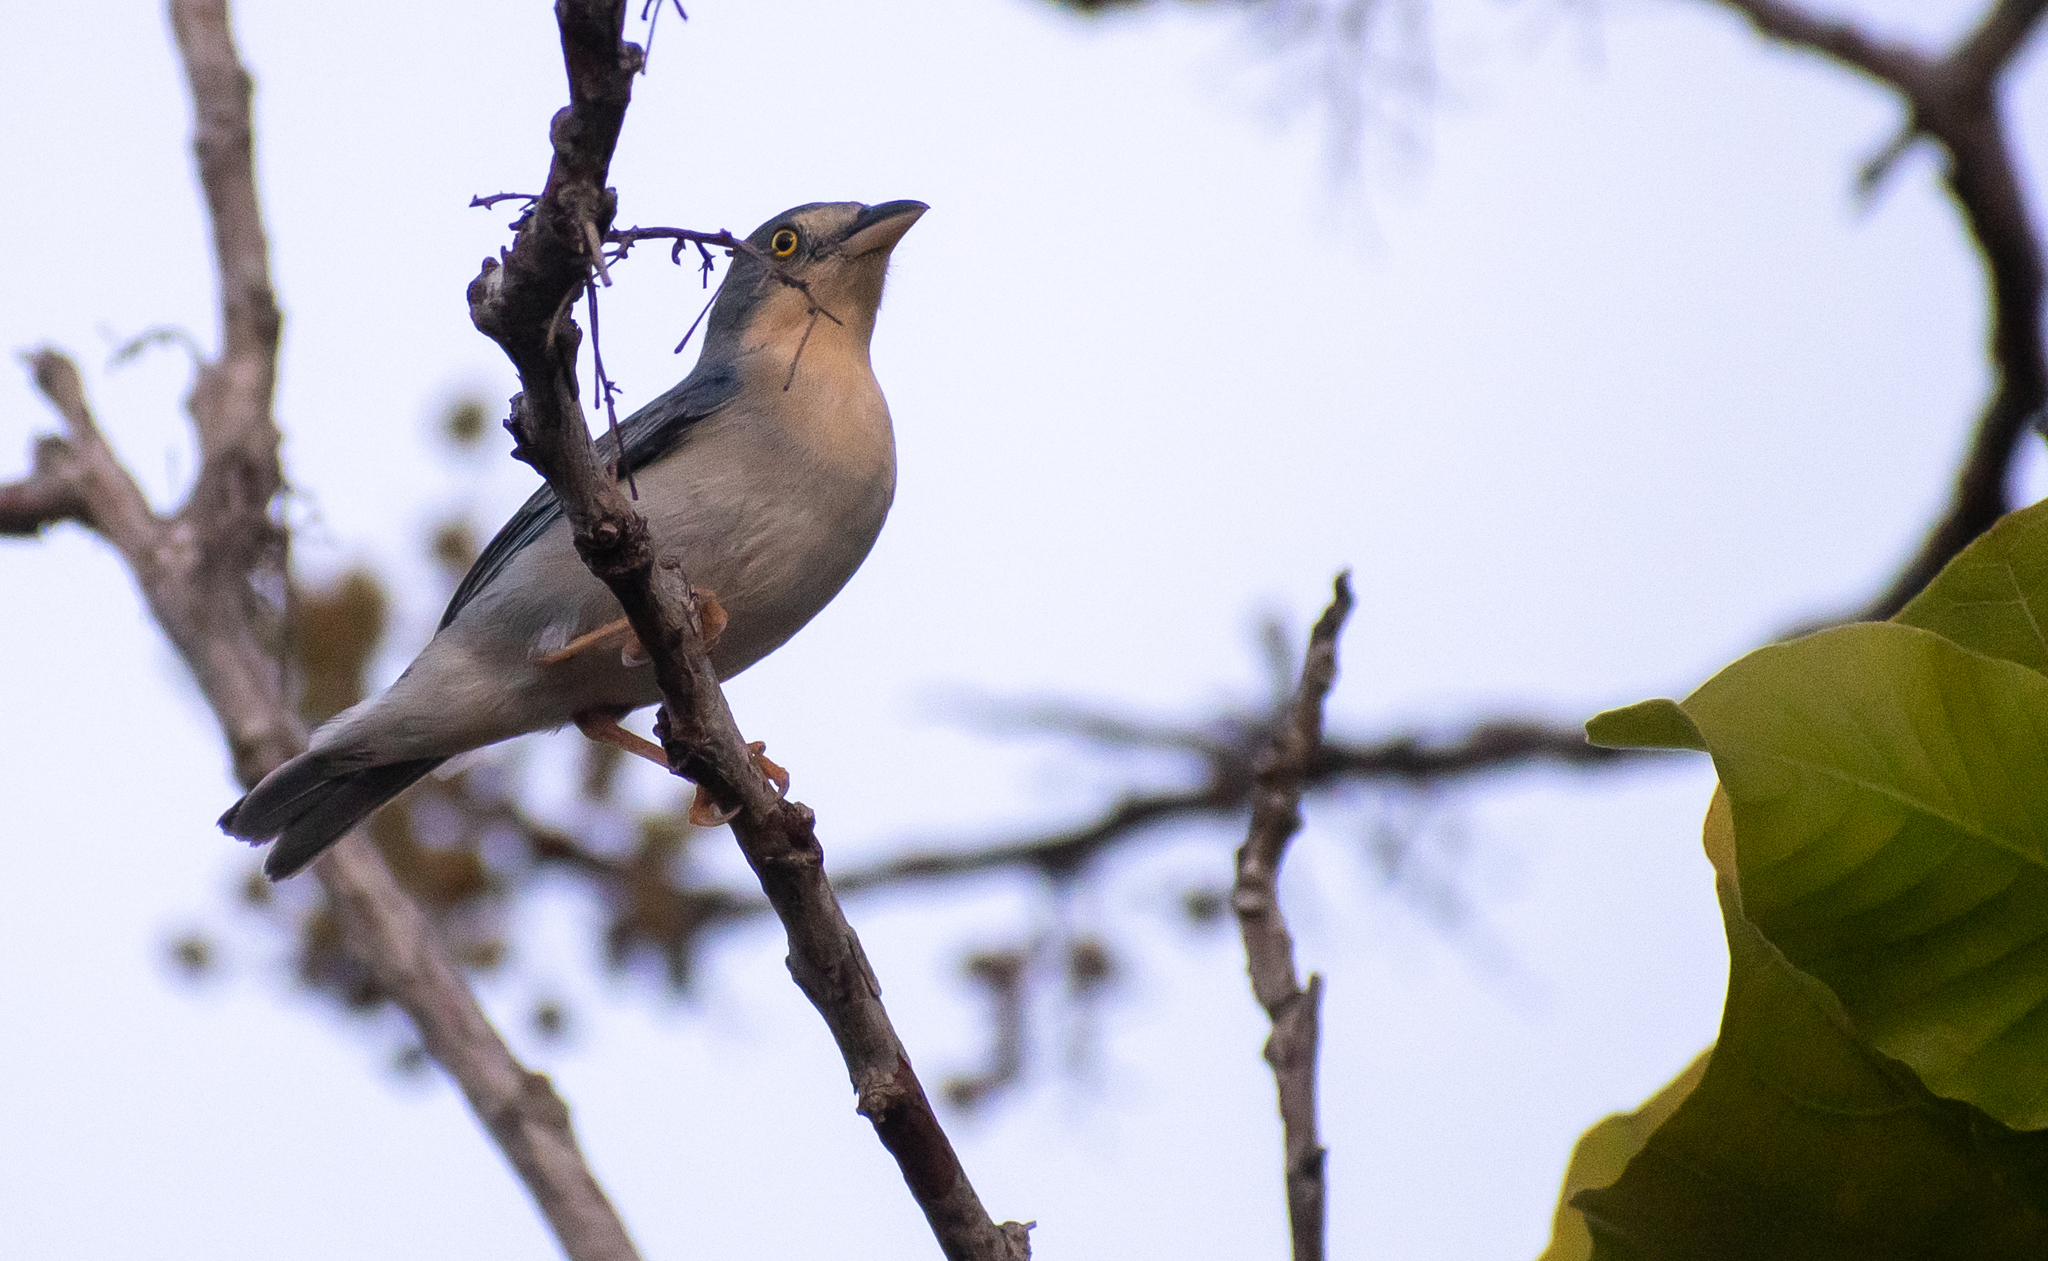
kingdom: Animalia
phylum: Chordata
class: Aves
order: Passeriformes
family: Thraupidae
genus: Nemosia
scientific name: Nemosia pileata
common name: Hooded tanager
